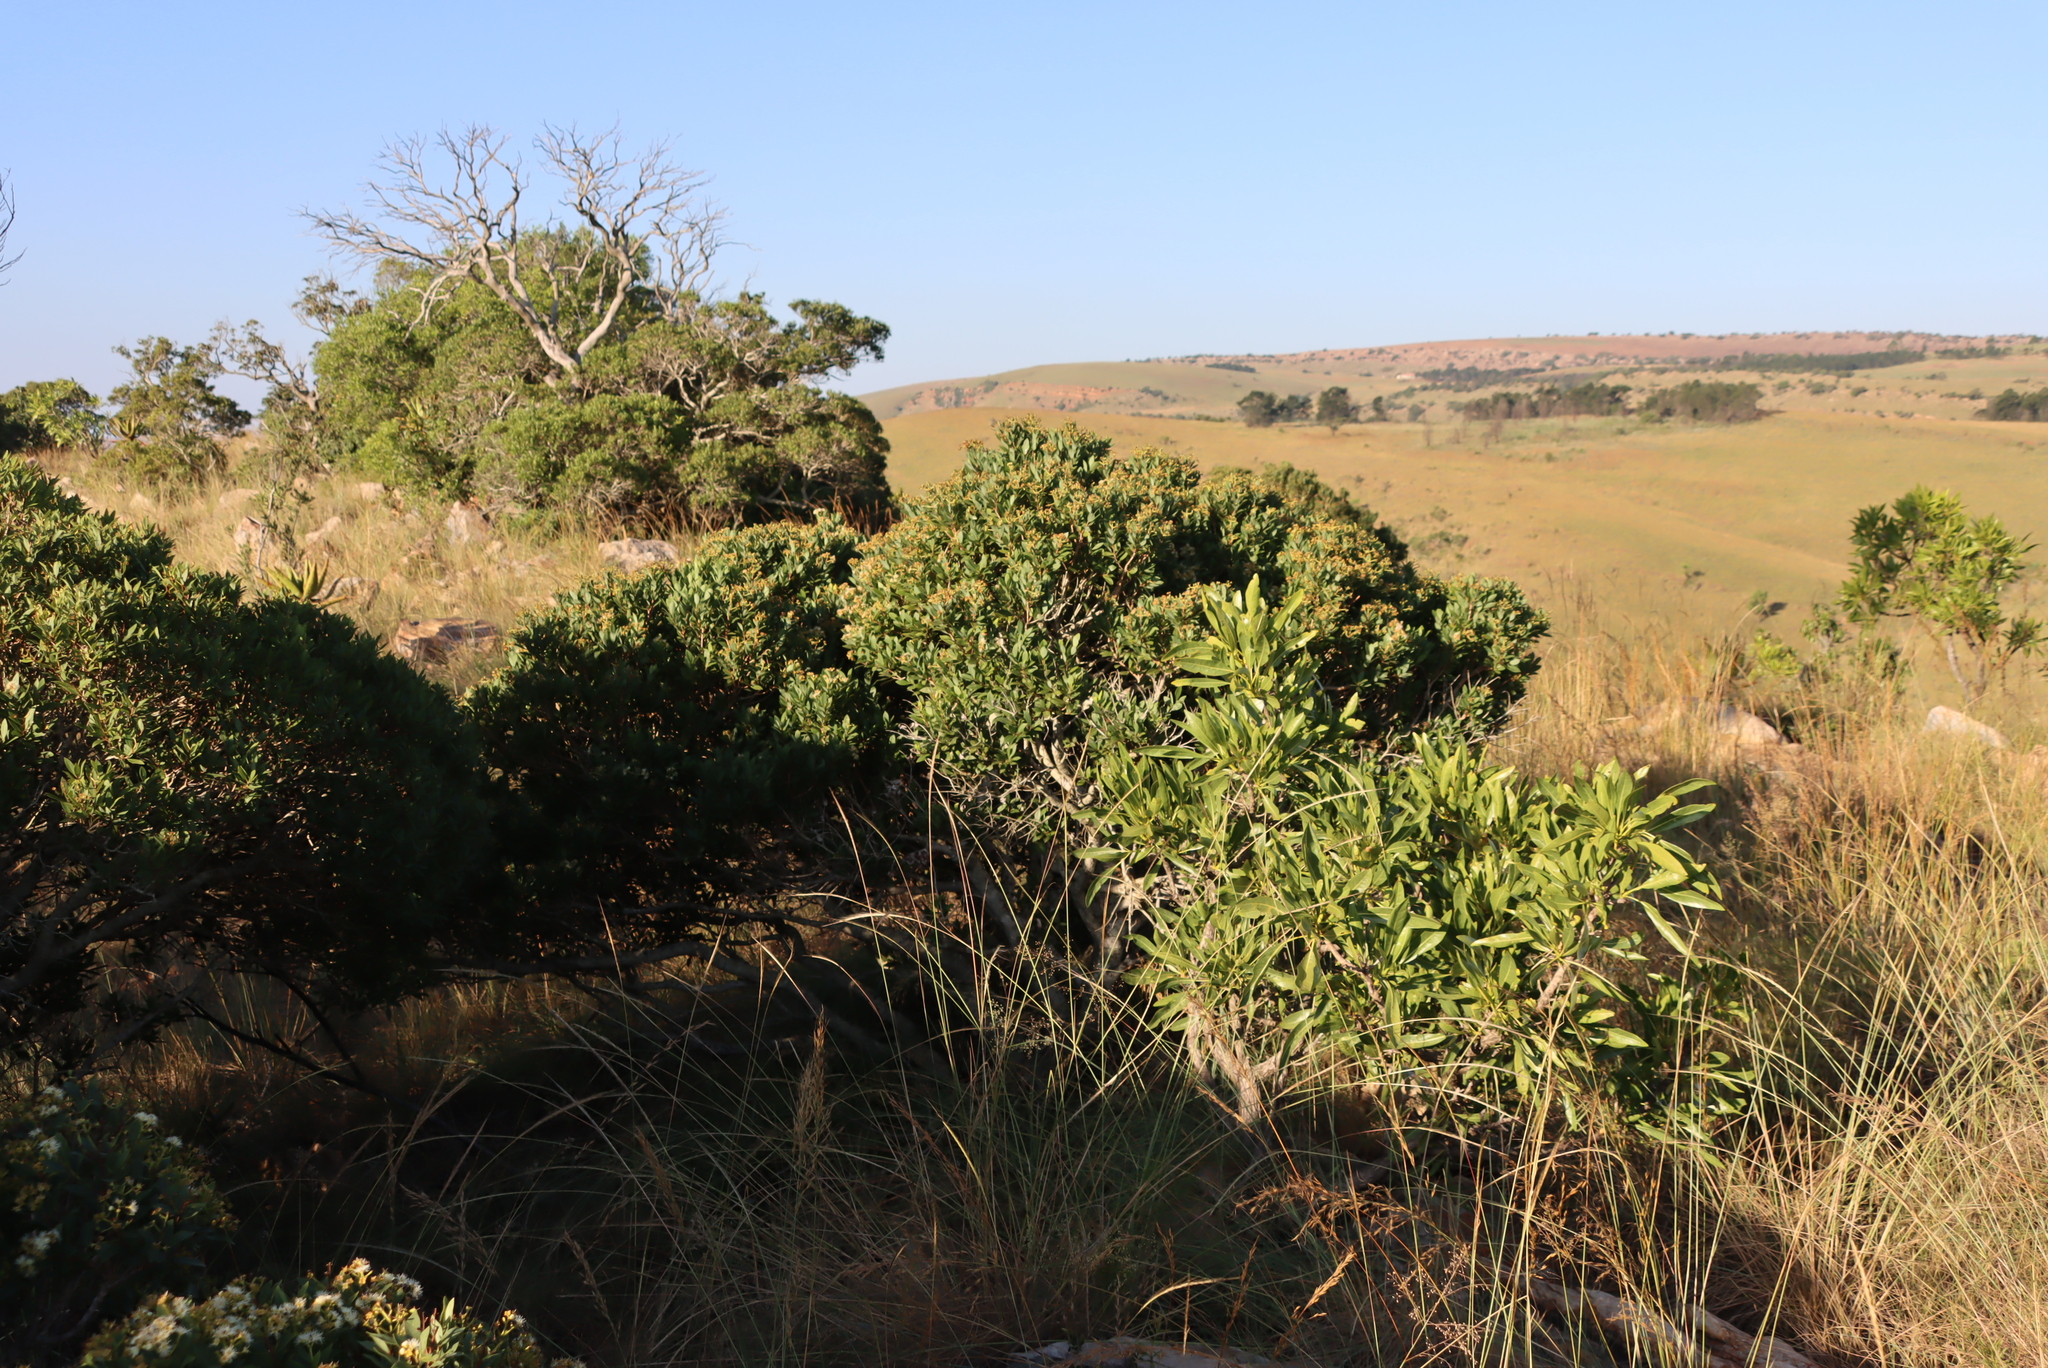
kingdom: Plantae
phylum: Tracheophyta
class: Magnoliopsida
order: Myrtales
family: Myrtaceae
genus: Syzygium
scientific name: Syzygium legatii
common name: Mountain waterberry
